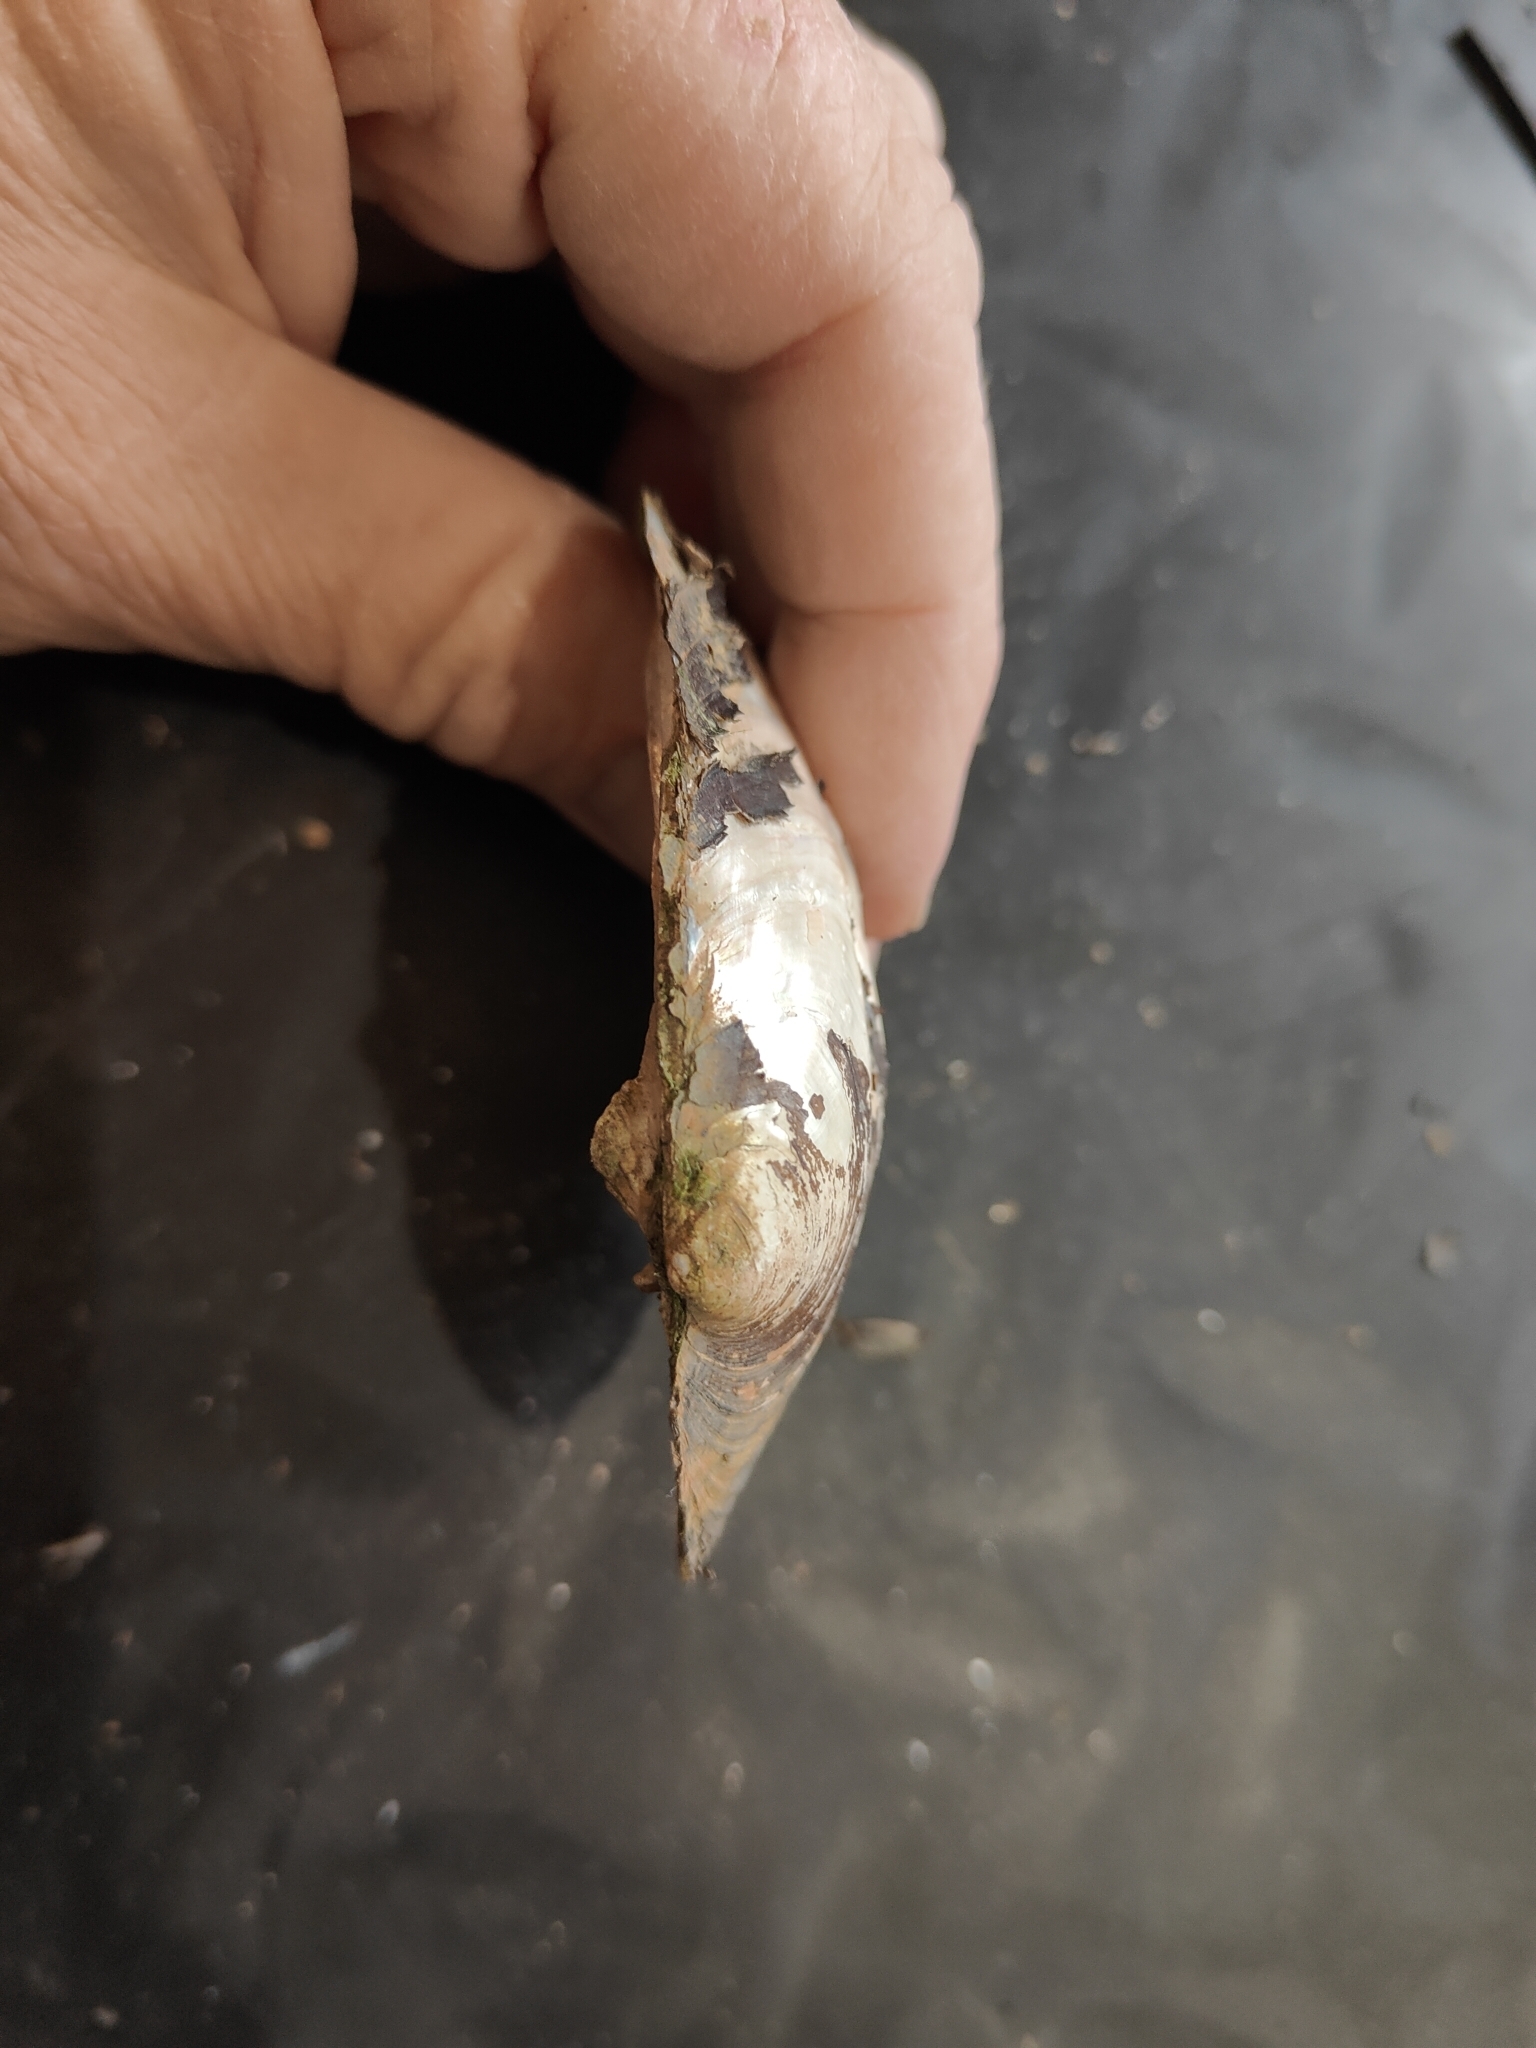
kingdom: Animalia
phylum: Mollusca
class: Bivalvia
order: Unionida
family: Unionidae
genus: Amblema
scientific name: Amblema plicata
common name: Threeridge
